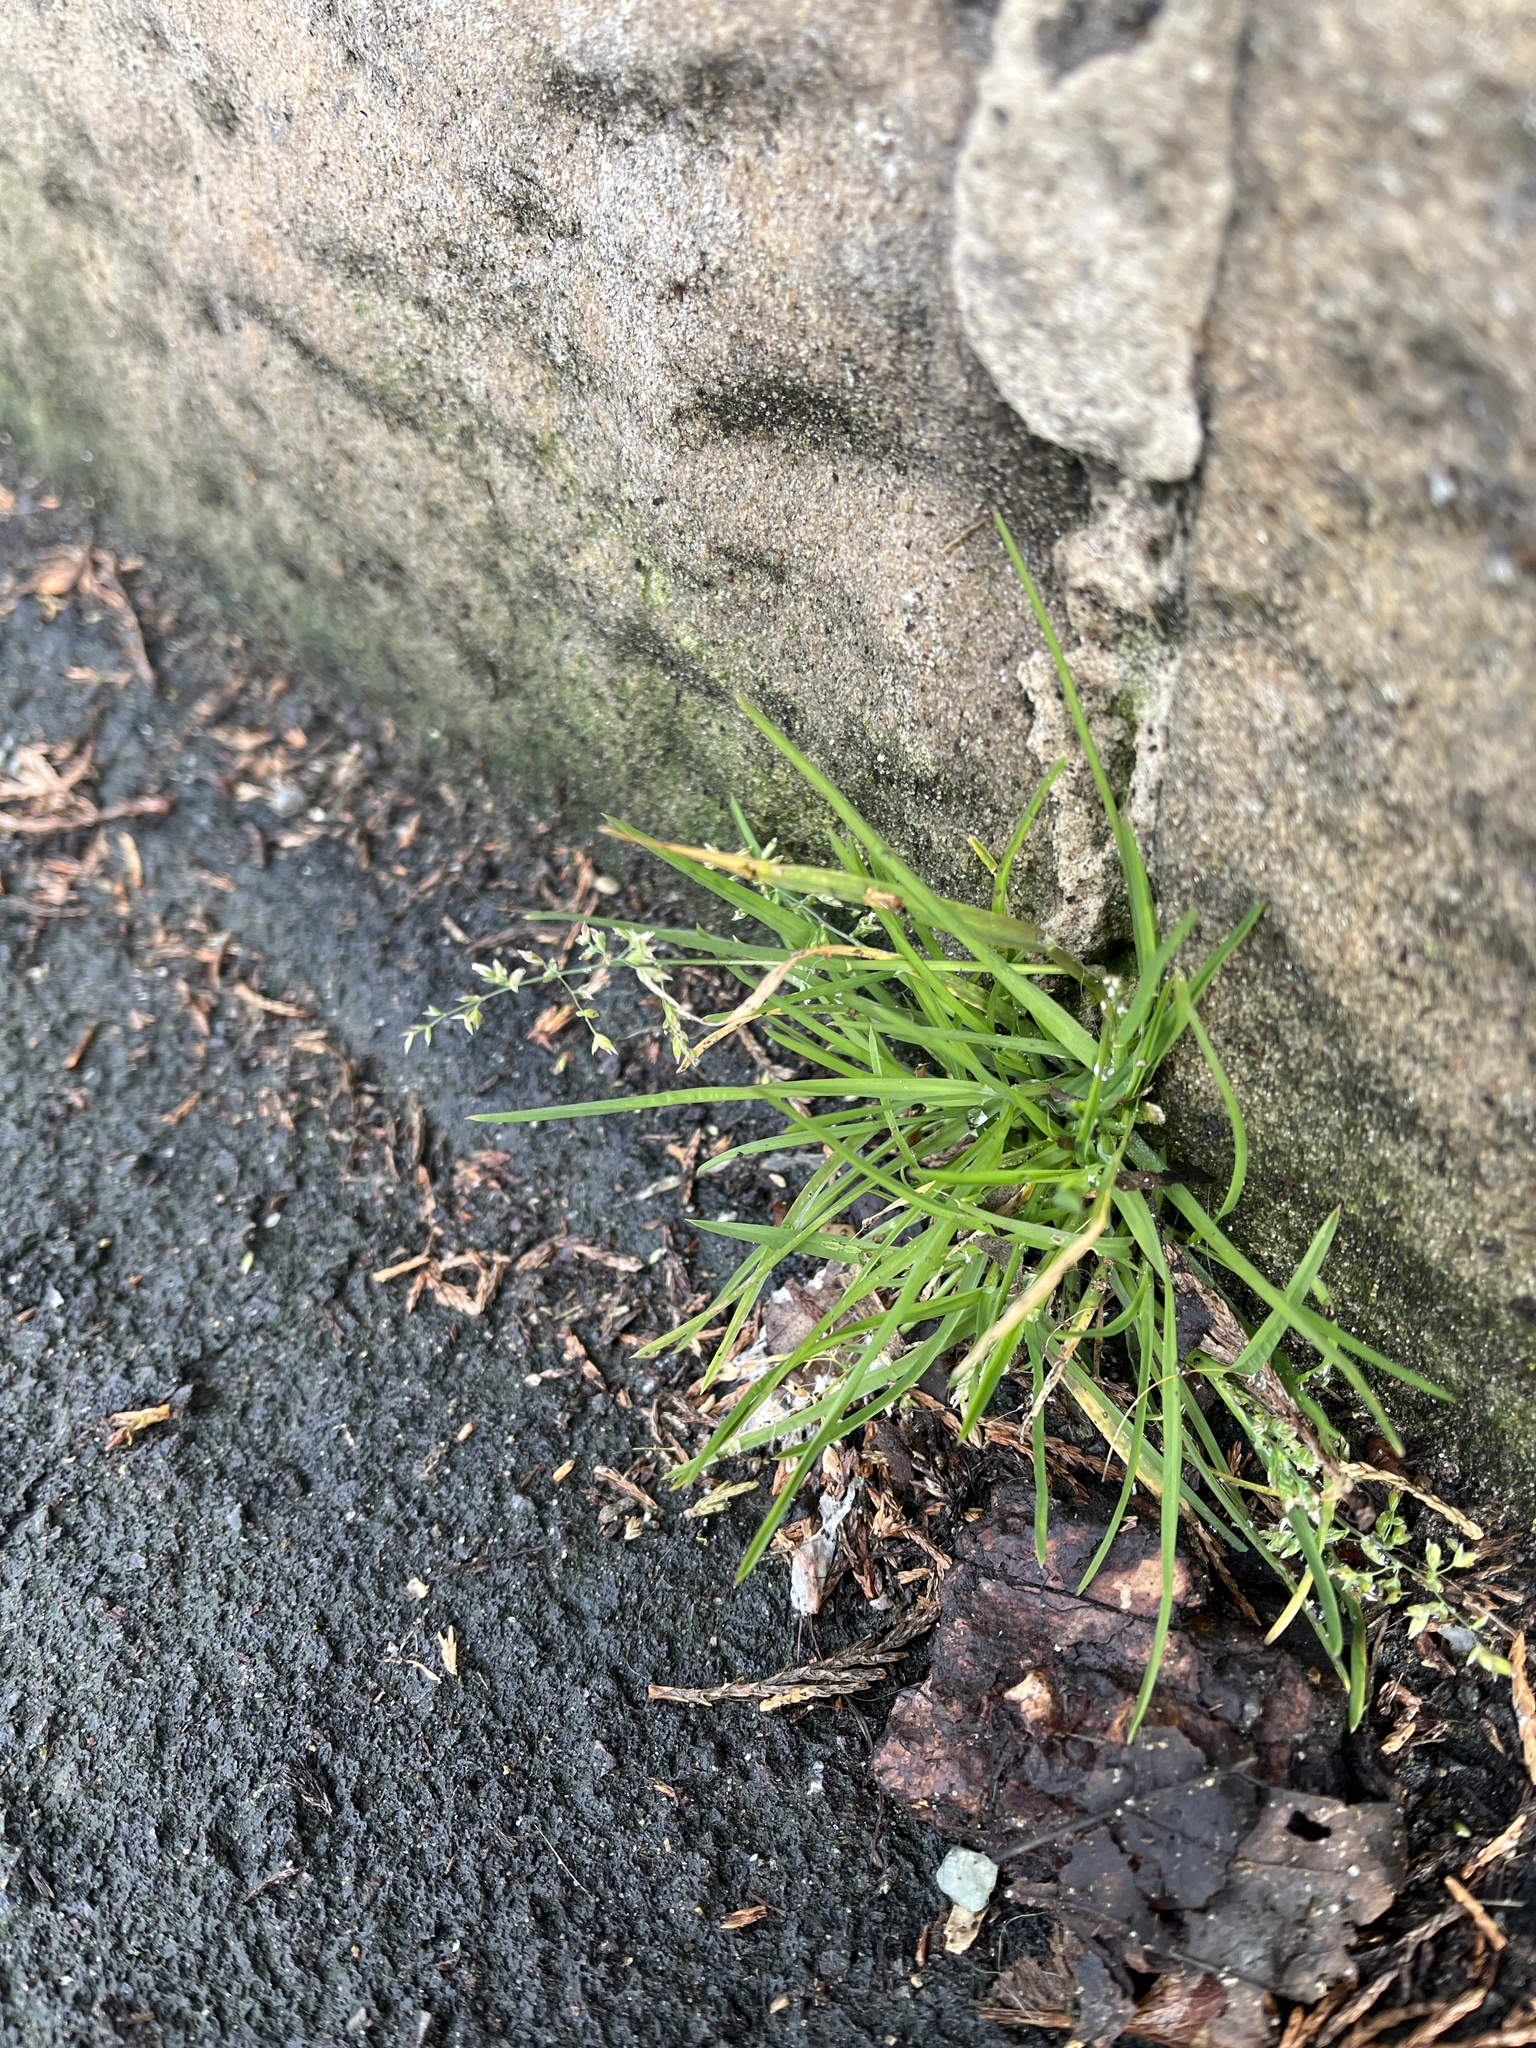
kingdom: Plantae
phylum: Tracheophyta
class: Liliopsida
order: Poales
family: Poaceae
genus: Poa
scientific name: Poa annua
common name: Annual bluegrass
